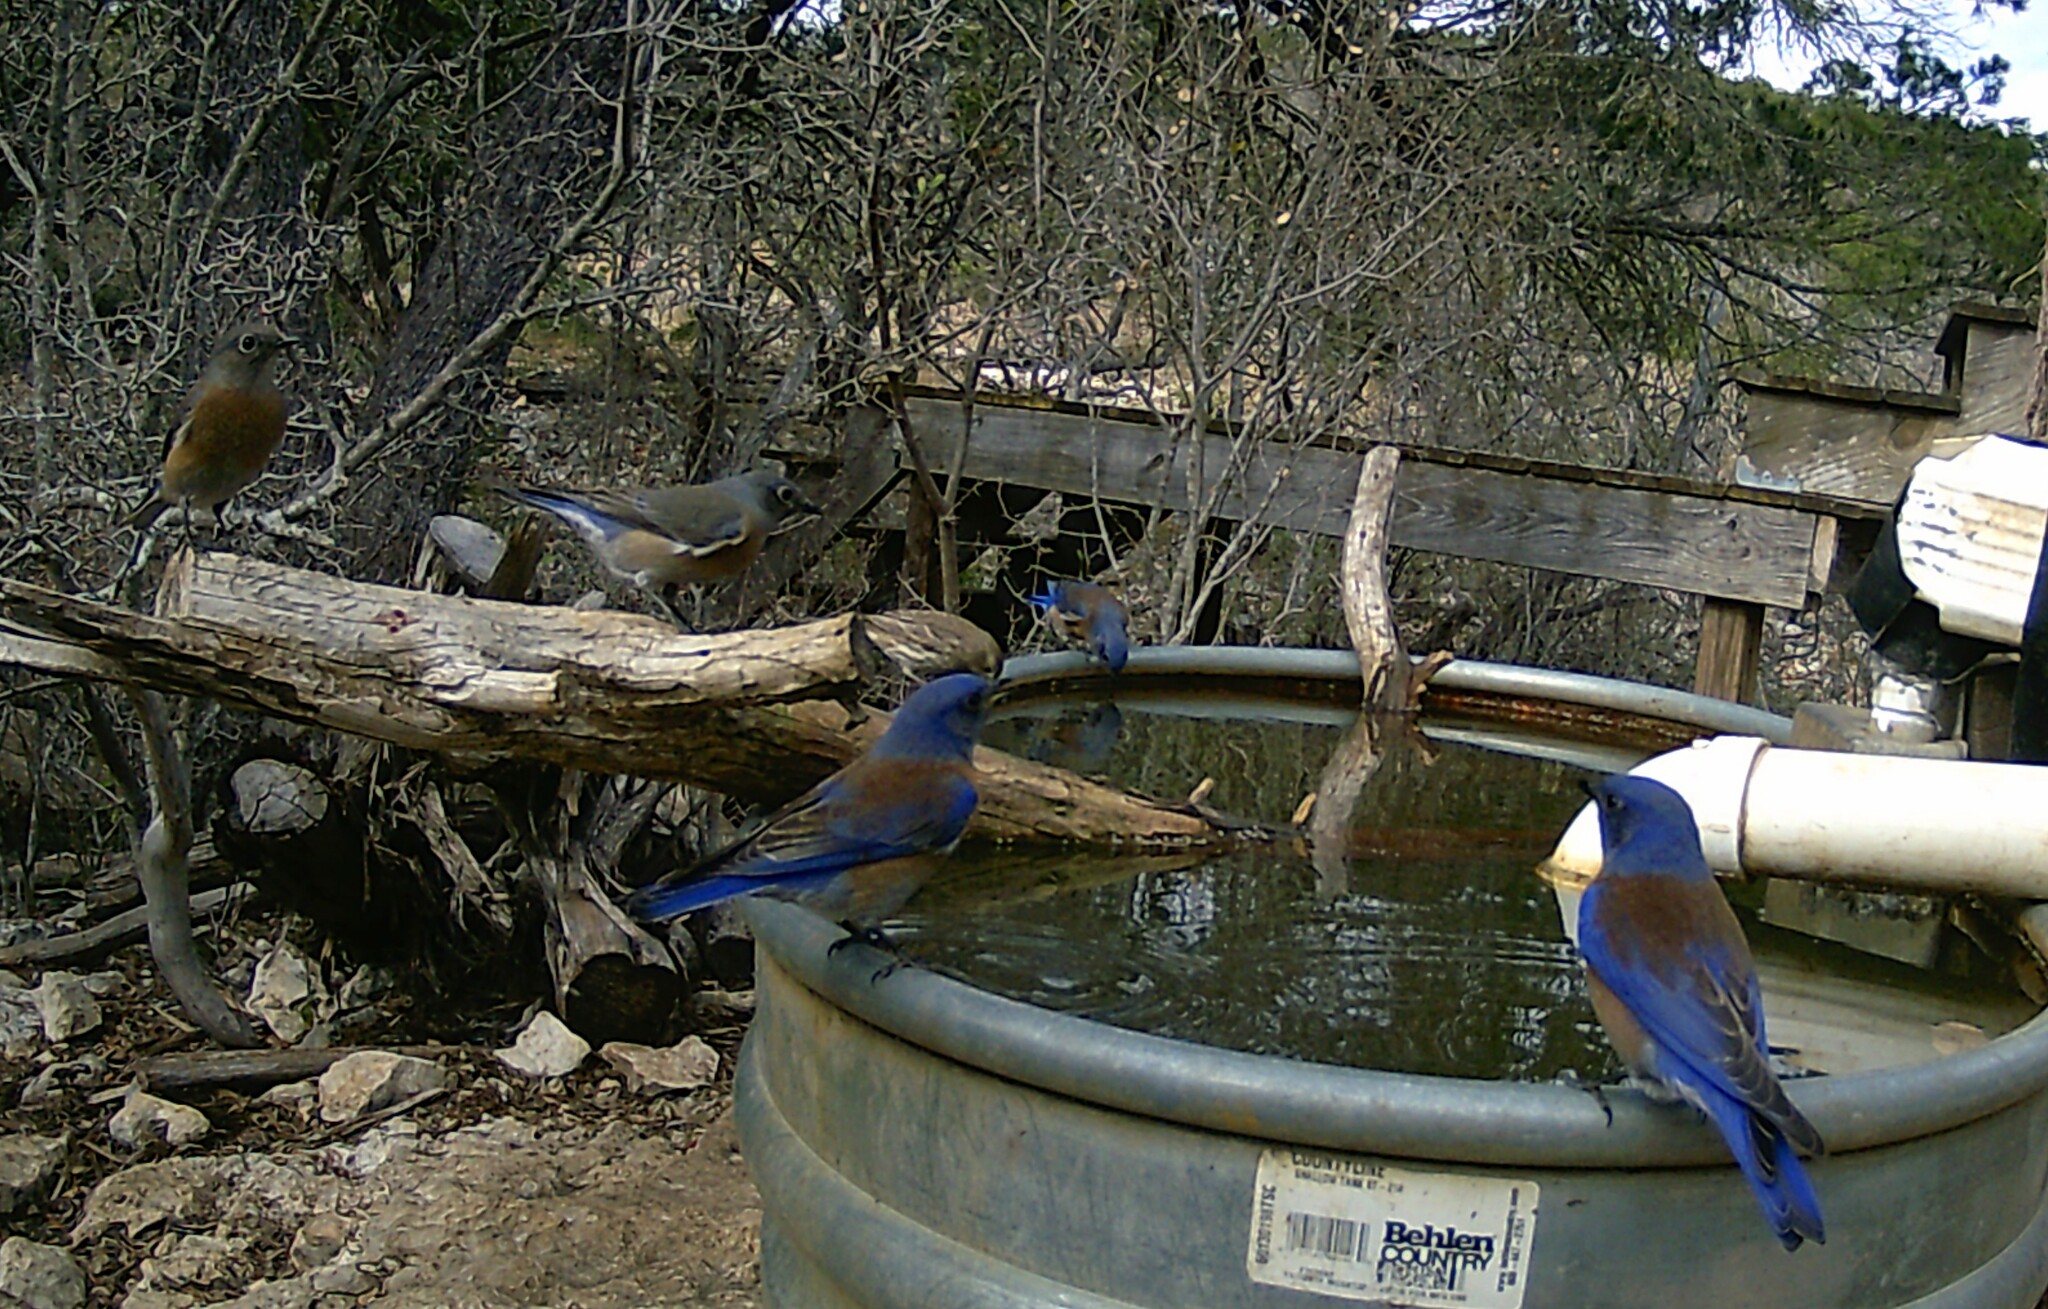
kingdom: Animalia
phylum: Chordata
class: Aves
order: Passeriformes
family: Turdidae
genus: Sialia
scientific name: Sialia sialis
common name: Eastern bluebird
